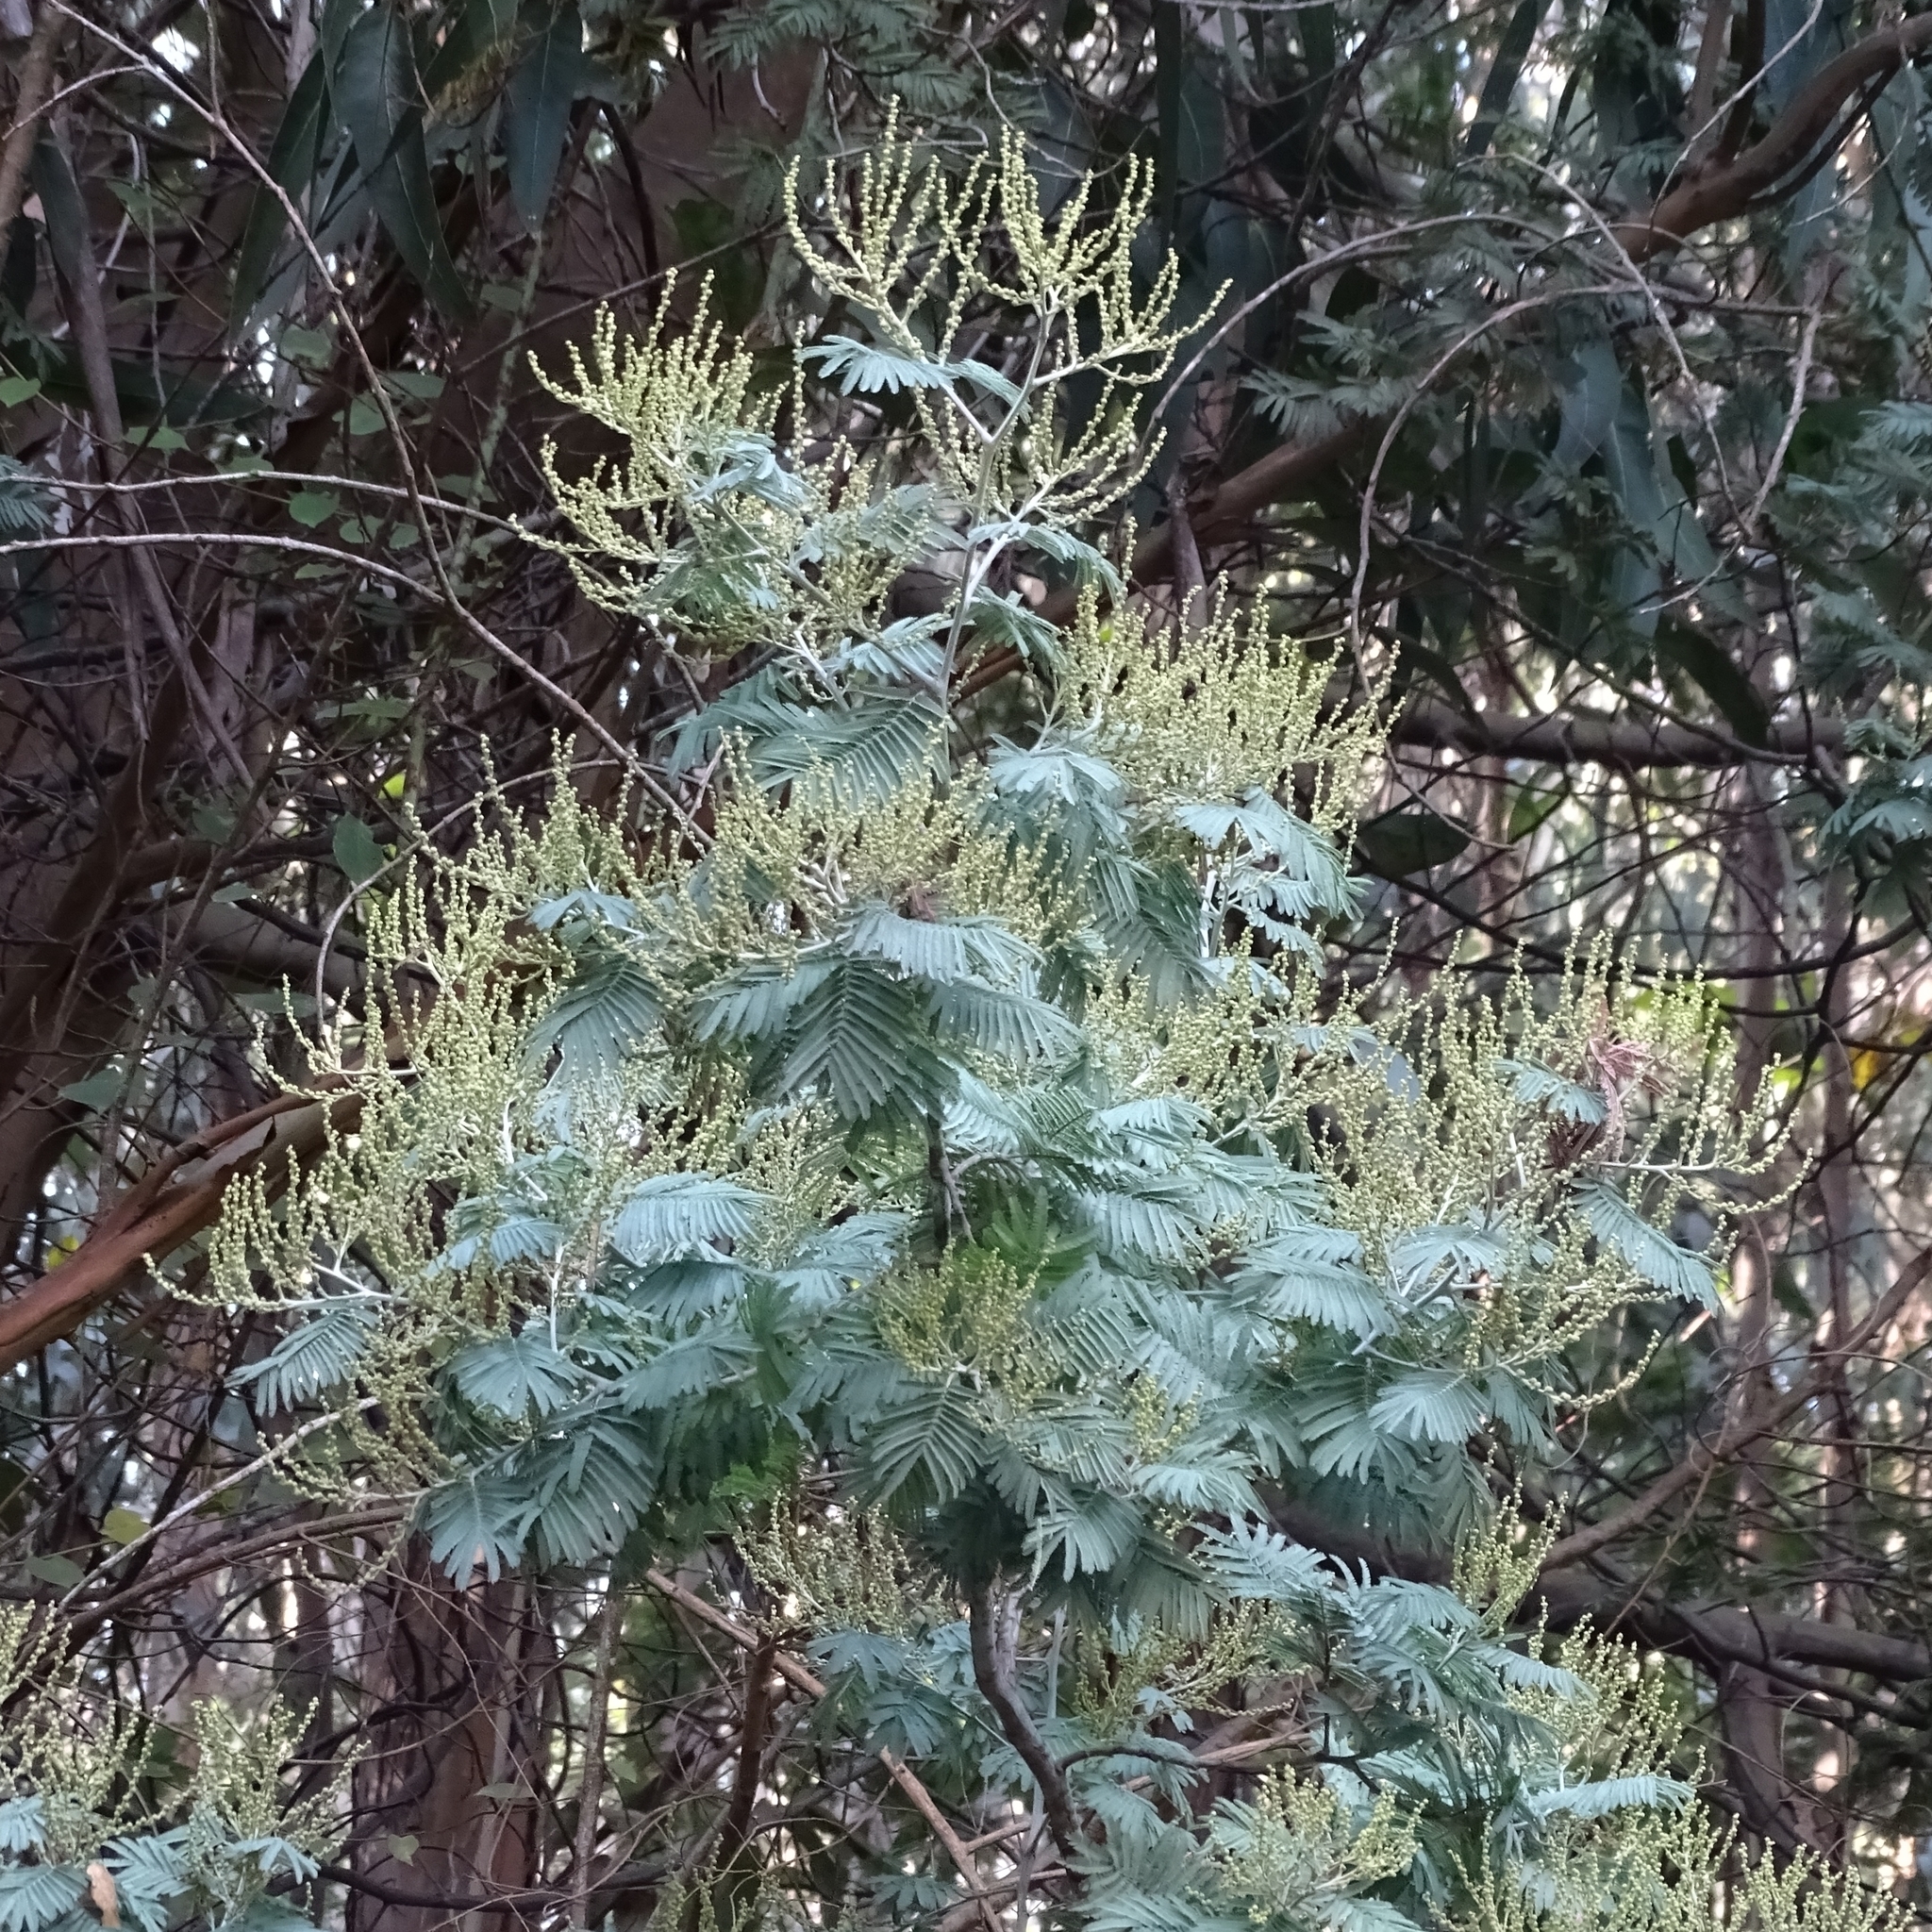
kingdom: Plantae
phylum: Tracheophyta
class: Magnoliopsida
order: Fabales
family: Fabaceae
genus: Acacia
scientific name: Acacia dealbata
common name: Silver wattle
